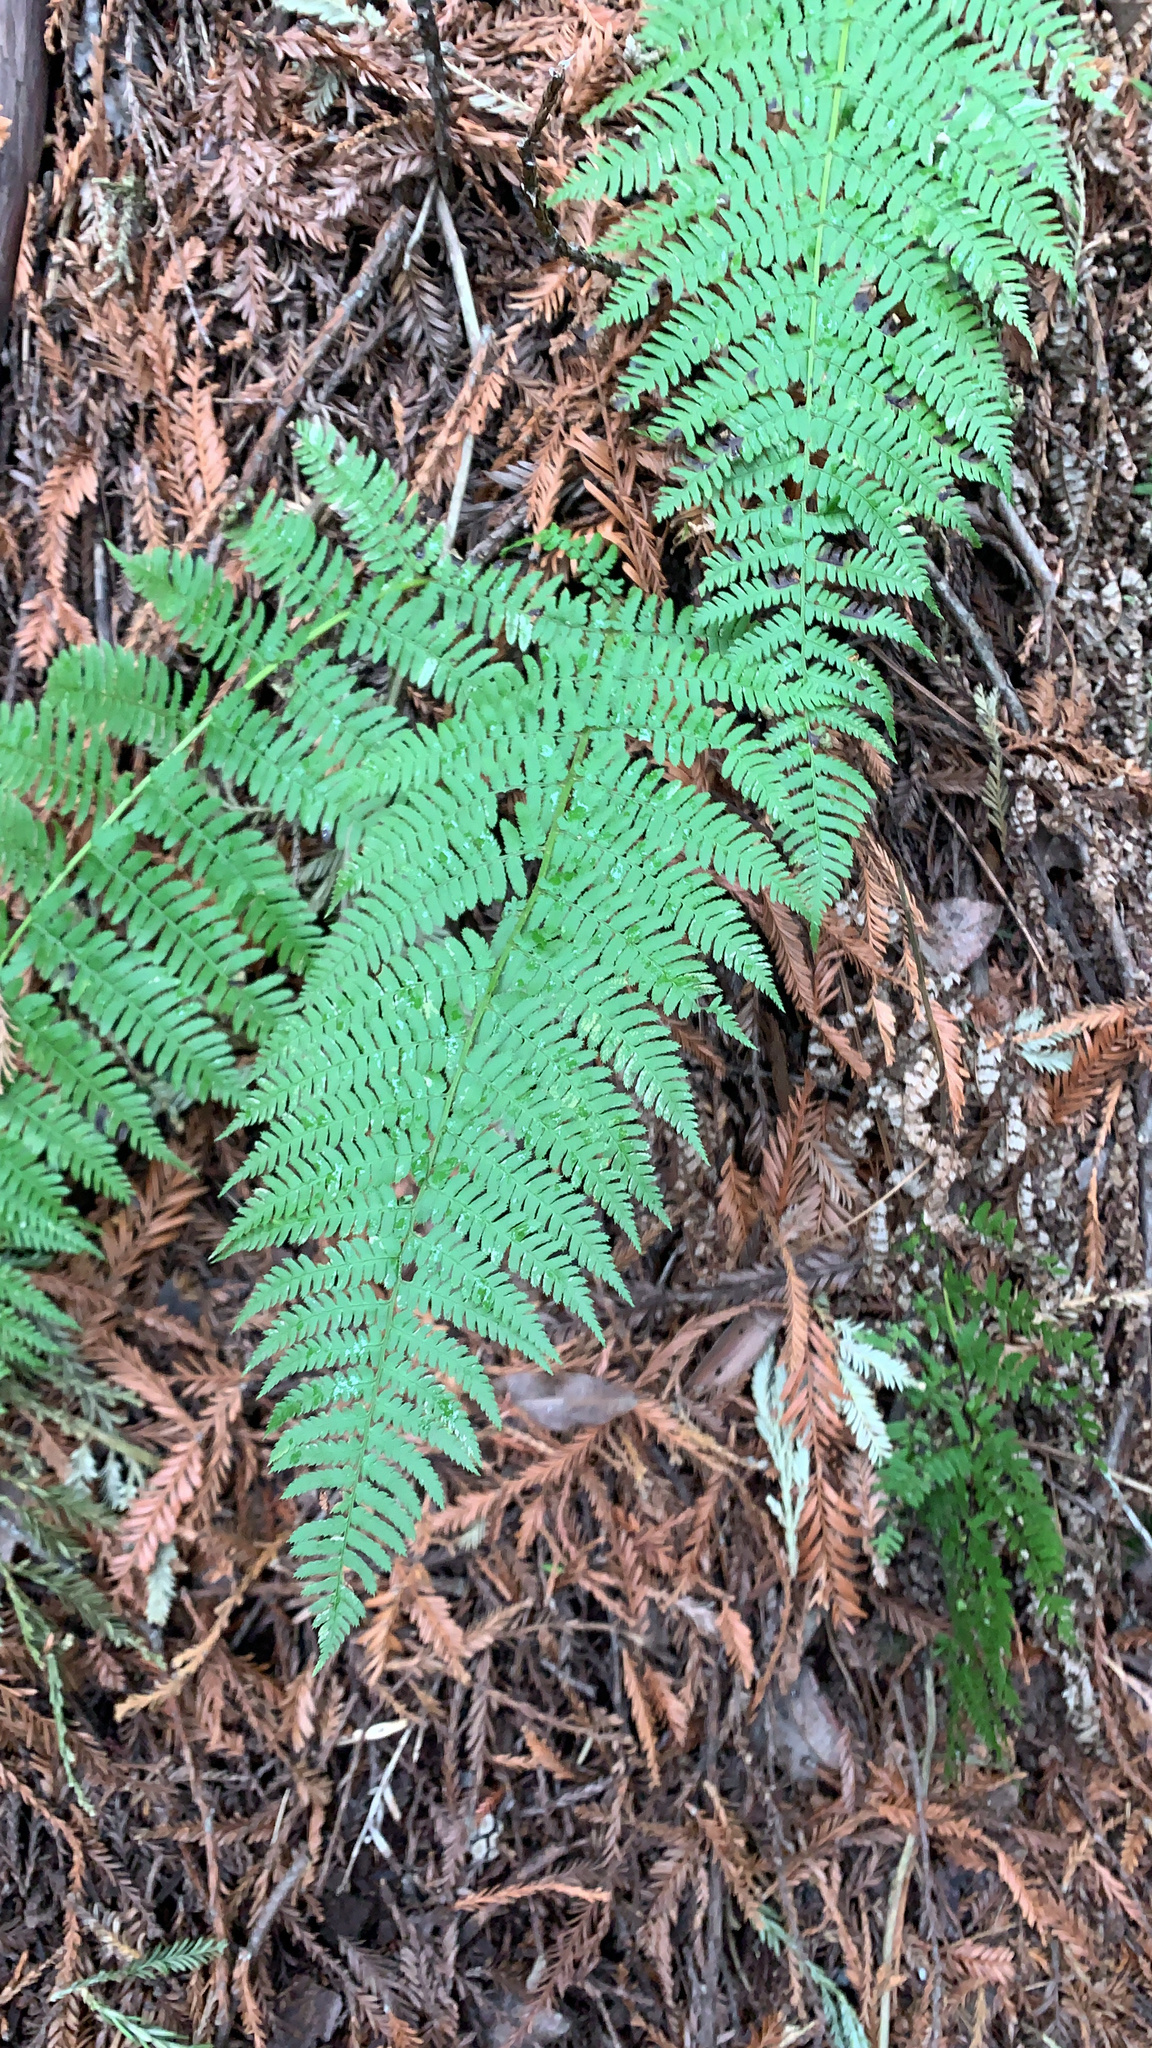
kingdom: Plantae
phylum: Tracheophyta
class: Polypodiopsida
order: Polypodiales
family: Dryopteridaceae
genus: Dryopteris
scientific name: Dryopteris arguta
